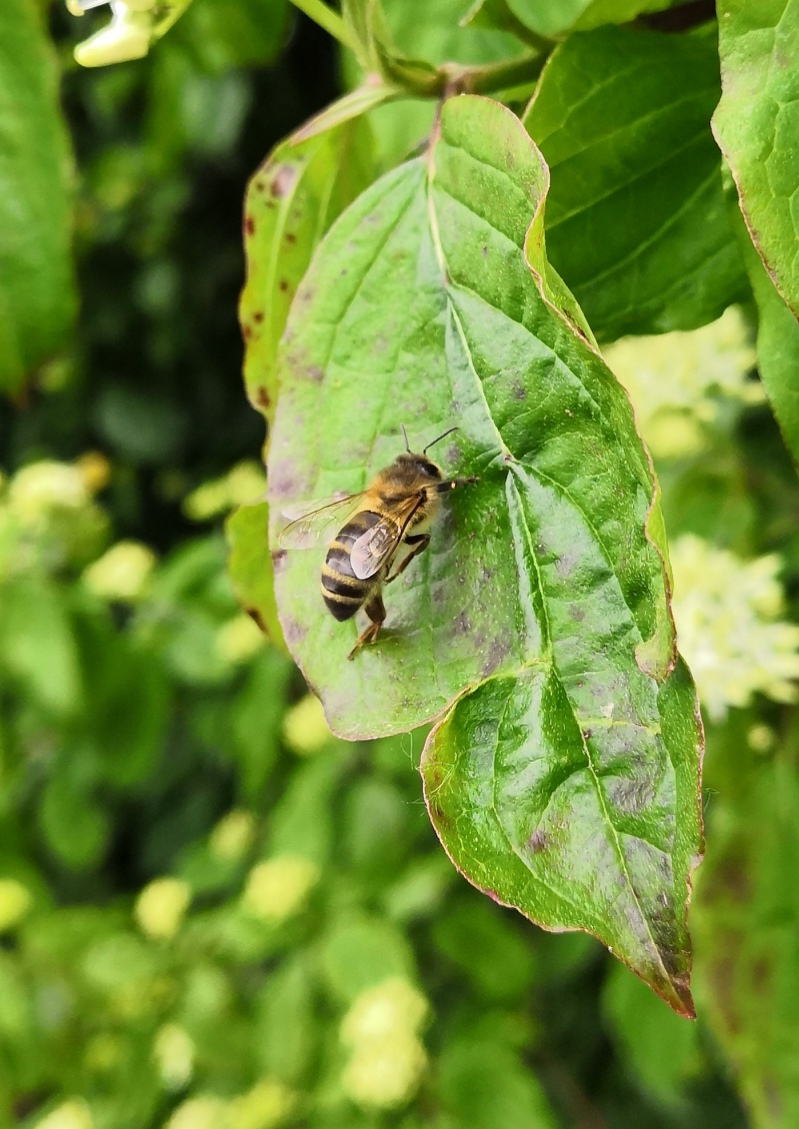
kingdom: Animalia
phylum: Arthropoda
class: Insecta
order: Hymenoptera
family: Apidae
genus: Apis
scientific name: Apis mellifera
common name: Honey bee
